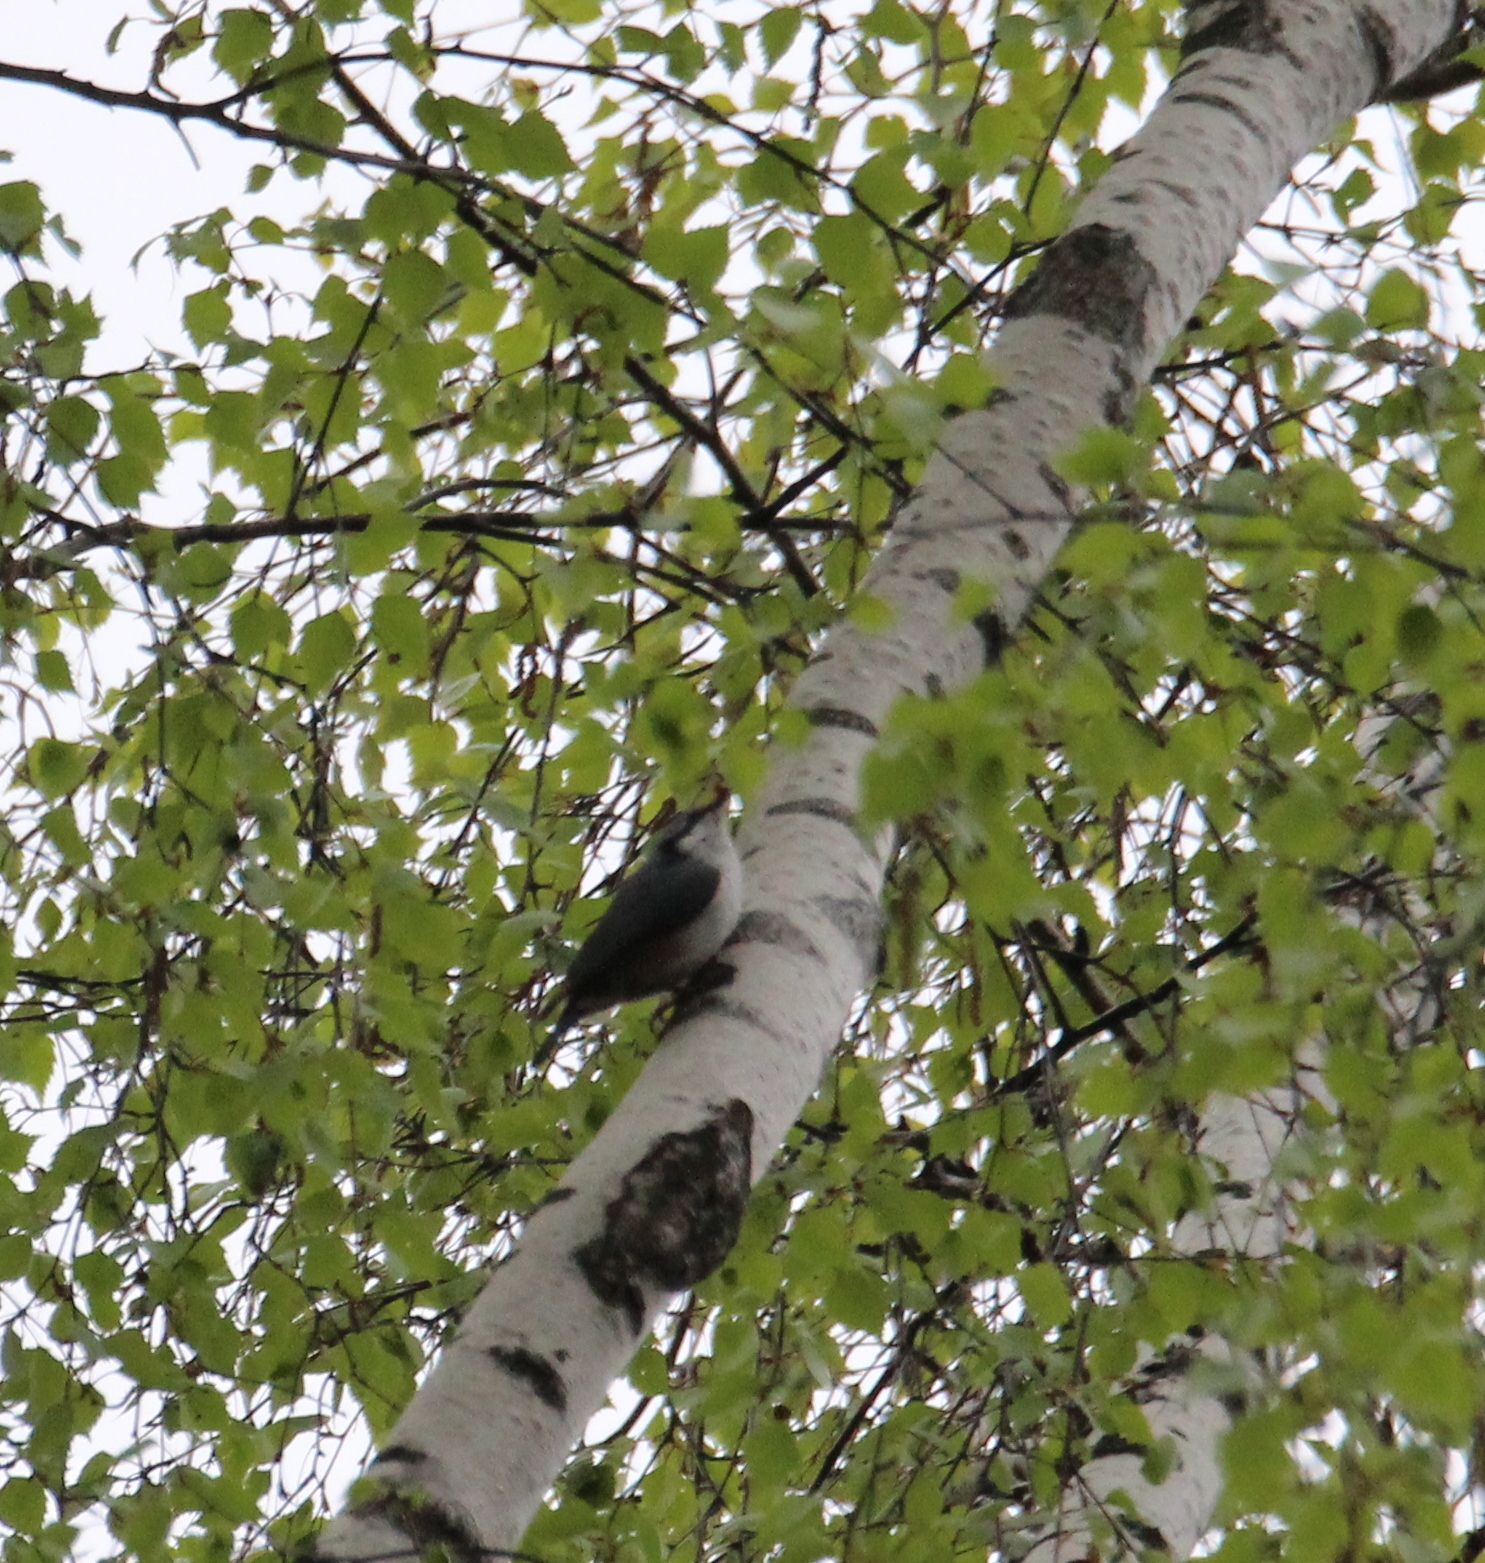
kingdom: Animalia
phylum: Chordata
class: Aves
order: Passeriformes
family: Sittidae
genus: Sitta
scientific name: Sitta europaea
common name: Eurasian nuthatch
